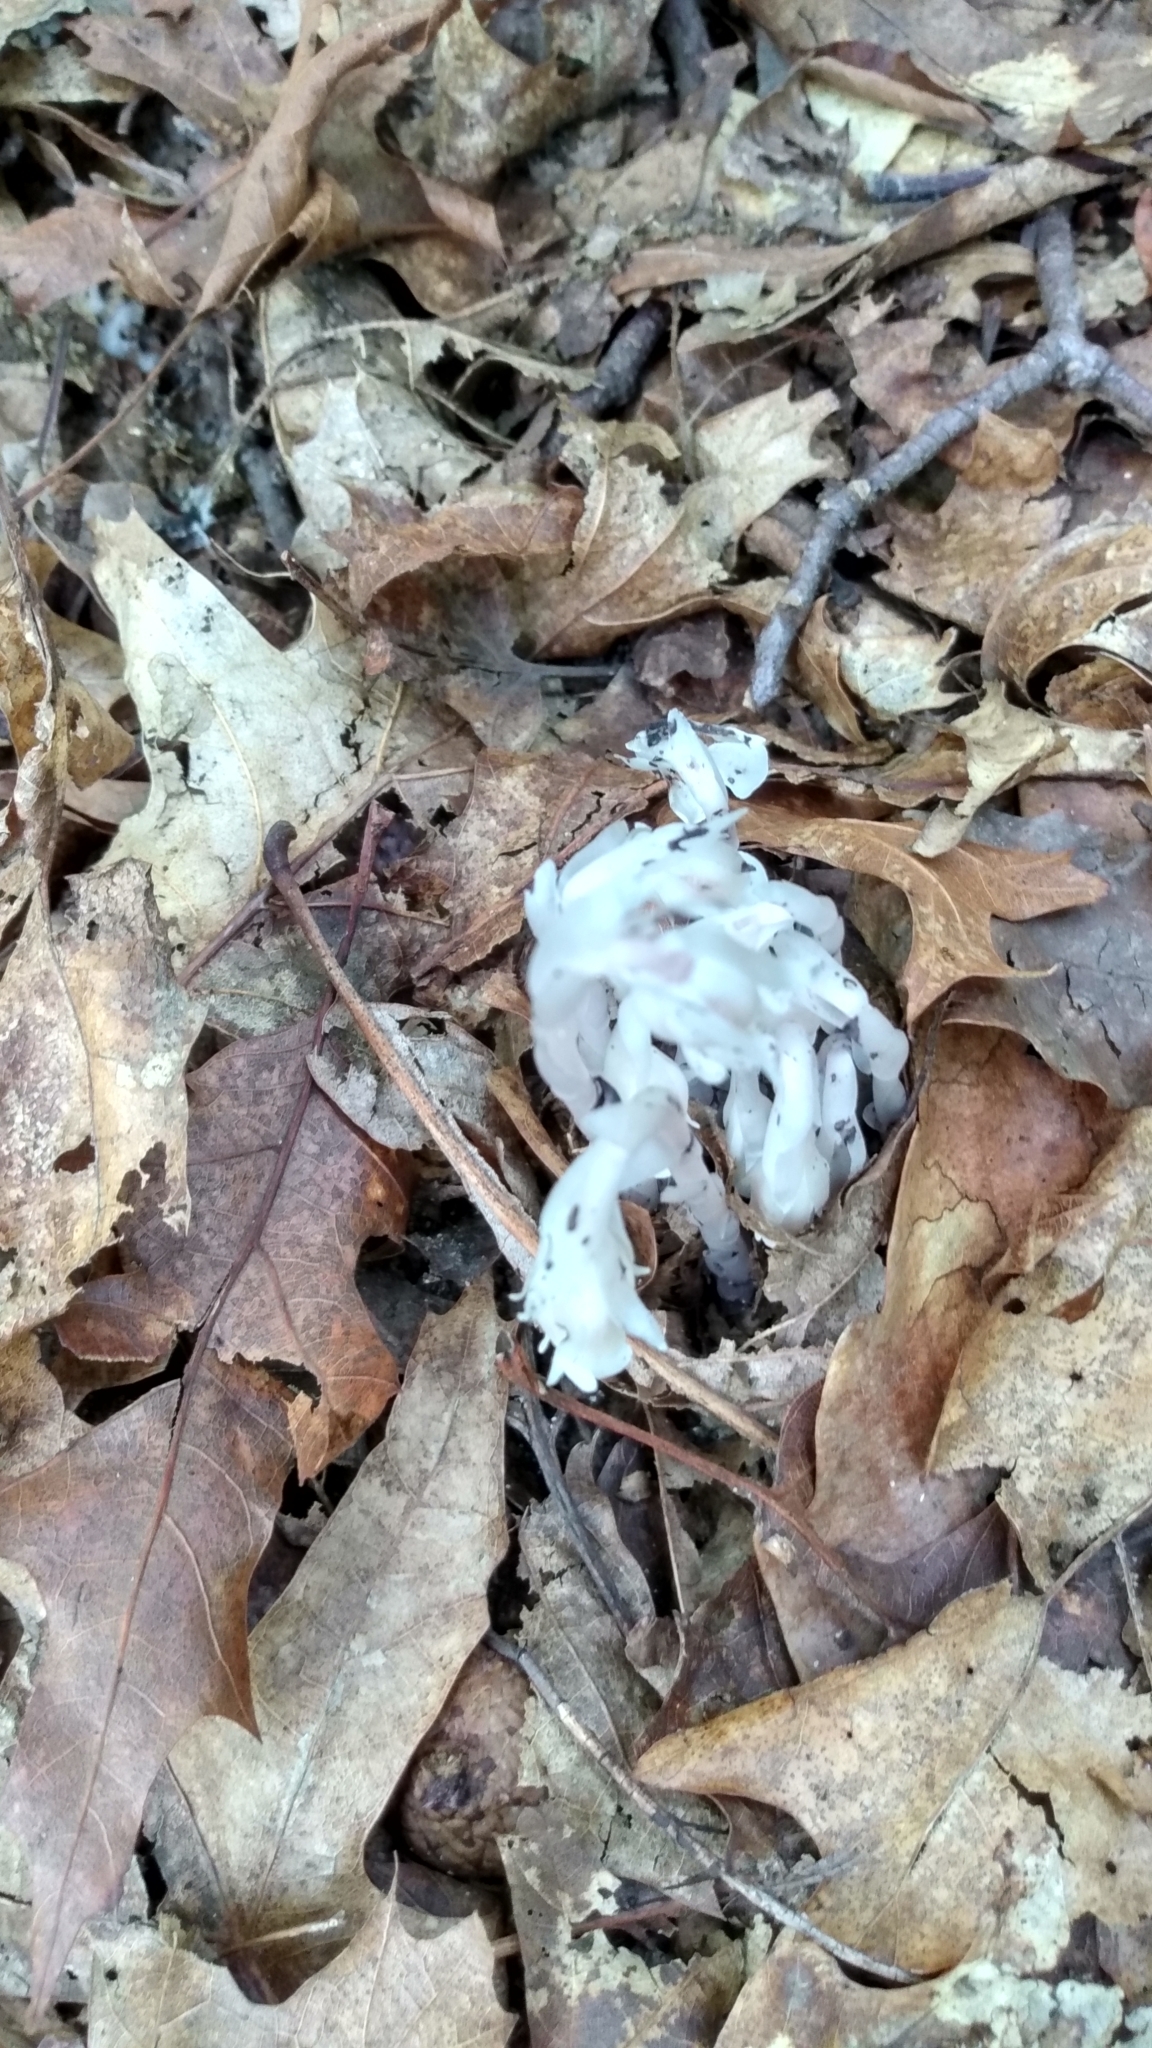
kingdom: Plantae
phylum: Tracheophyta
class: Magnoliopsida
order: Ericales
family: Ericaceae
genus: Monotropa
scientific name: Monotropa uniflora
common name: Convulsion root
